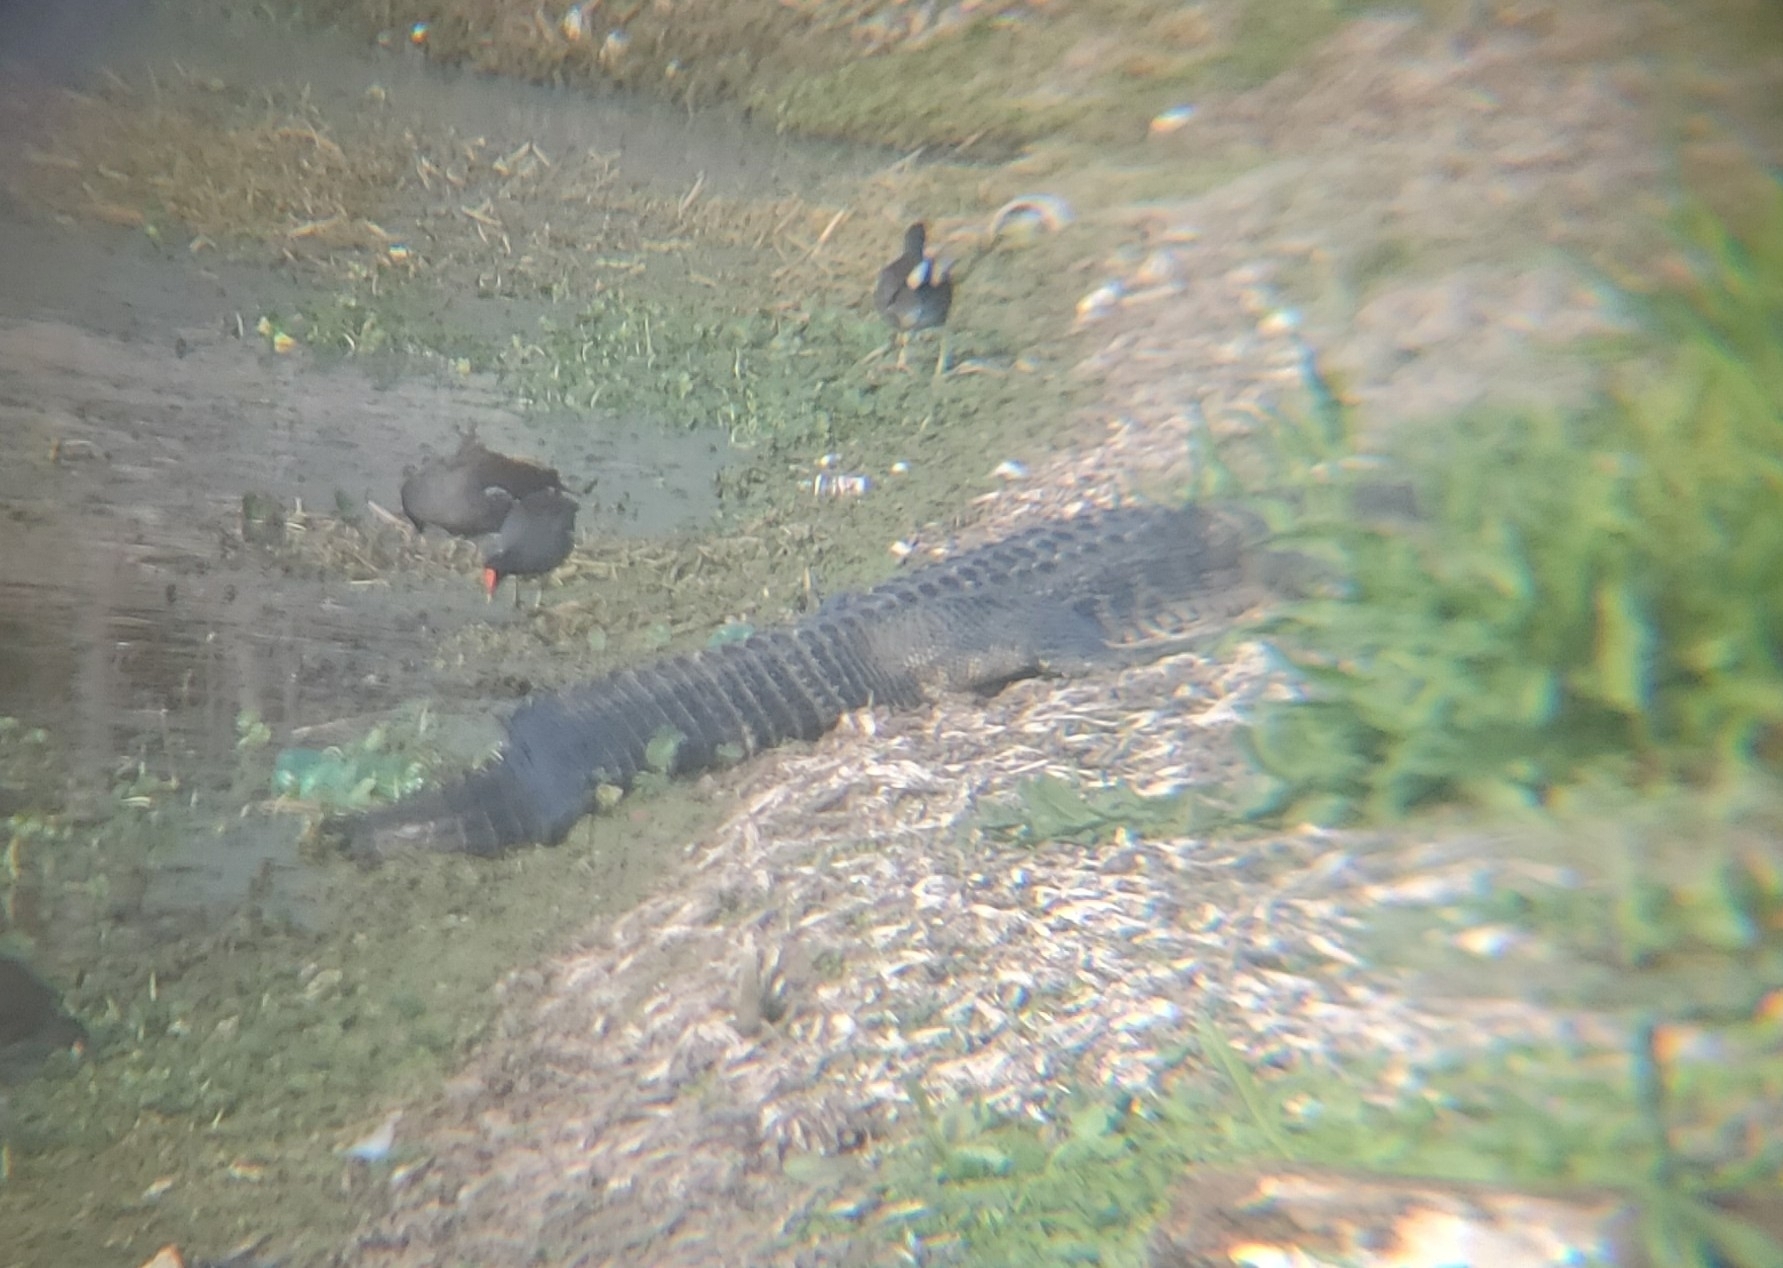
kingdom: Animalia
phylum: Chordata
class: Crocodylia
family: Alligatoridae
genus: Alligator
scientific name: Alligator mississippiensis
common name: American alligator
